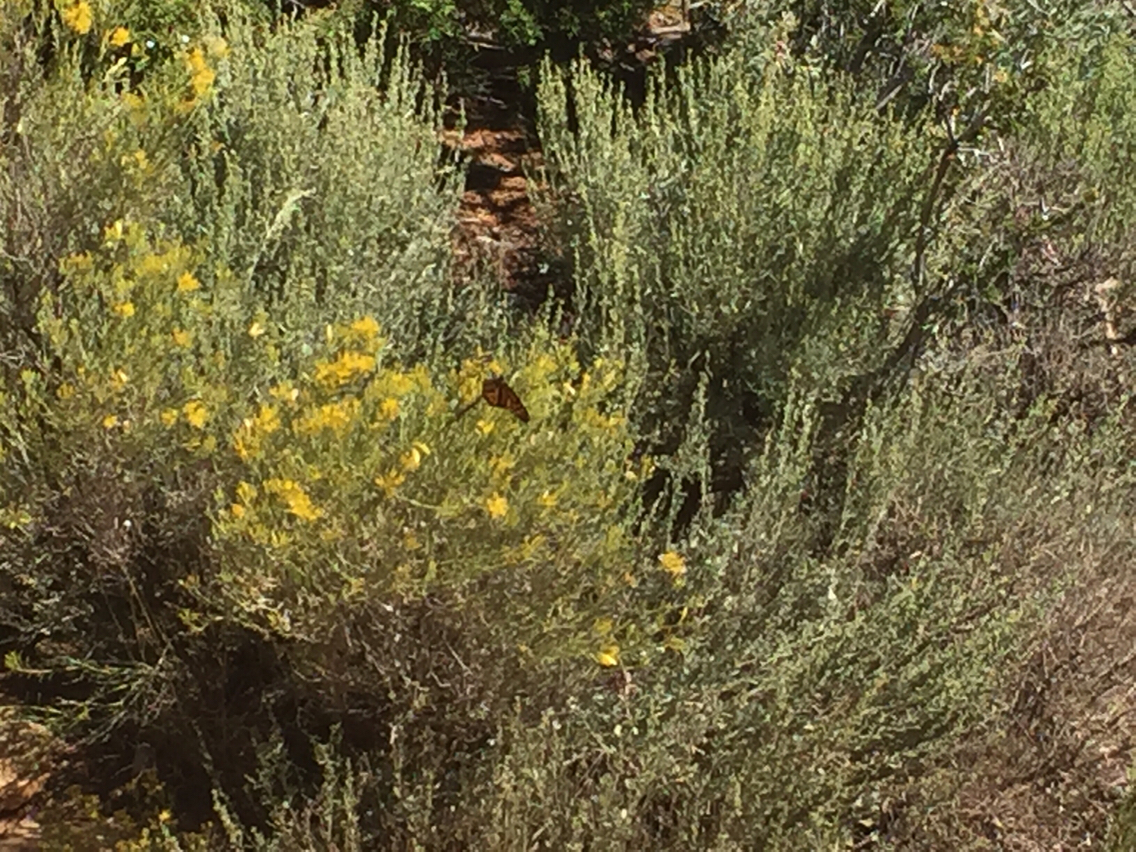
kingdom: Animalia
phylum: Arthropoda
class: Insecta
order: Lepidoptera
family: Nymphalidae
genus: Danaus
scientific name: Danaus plexippus
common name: Monarch
